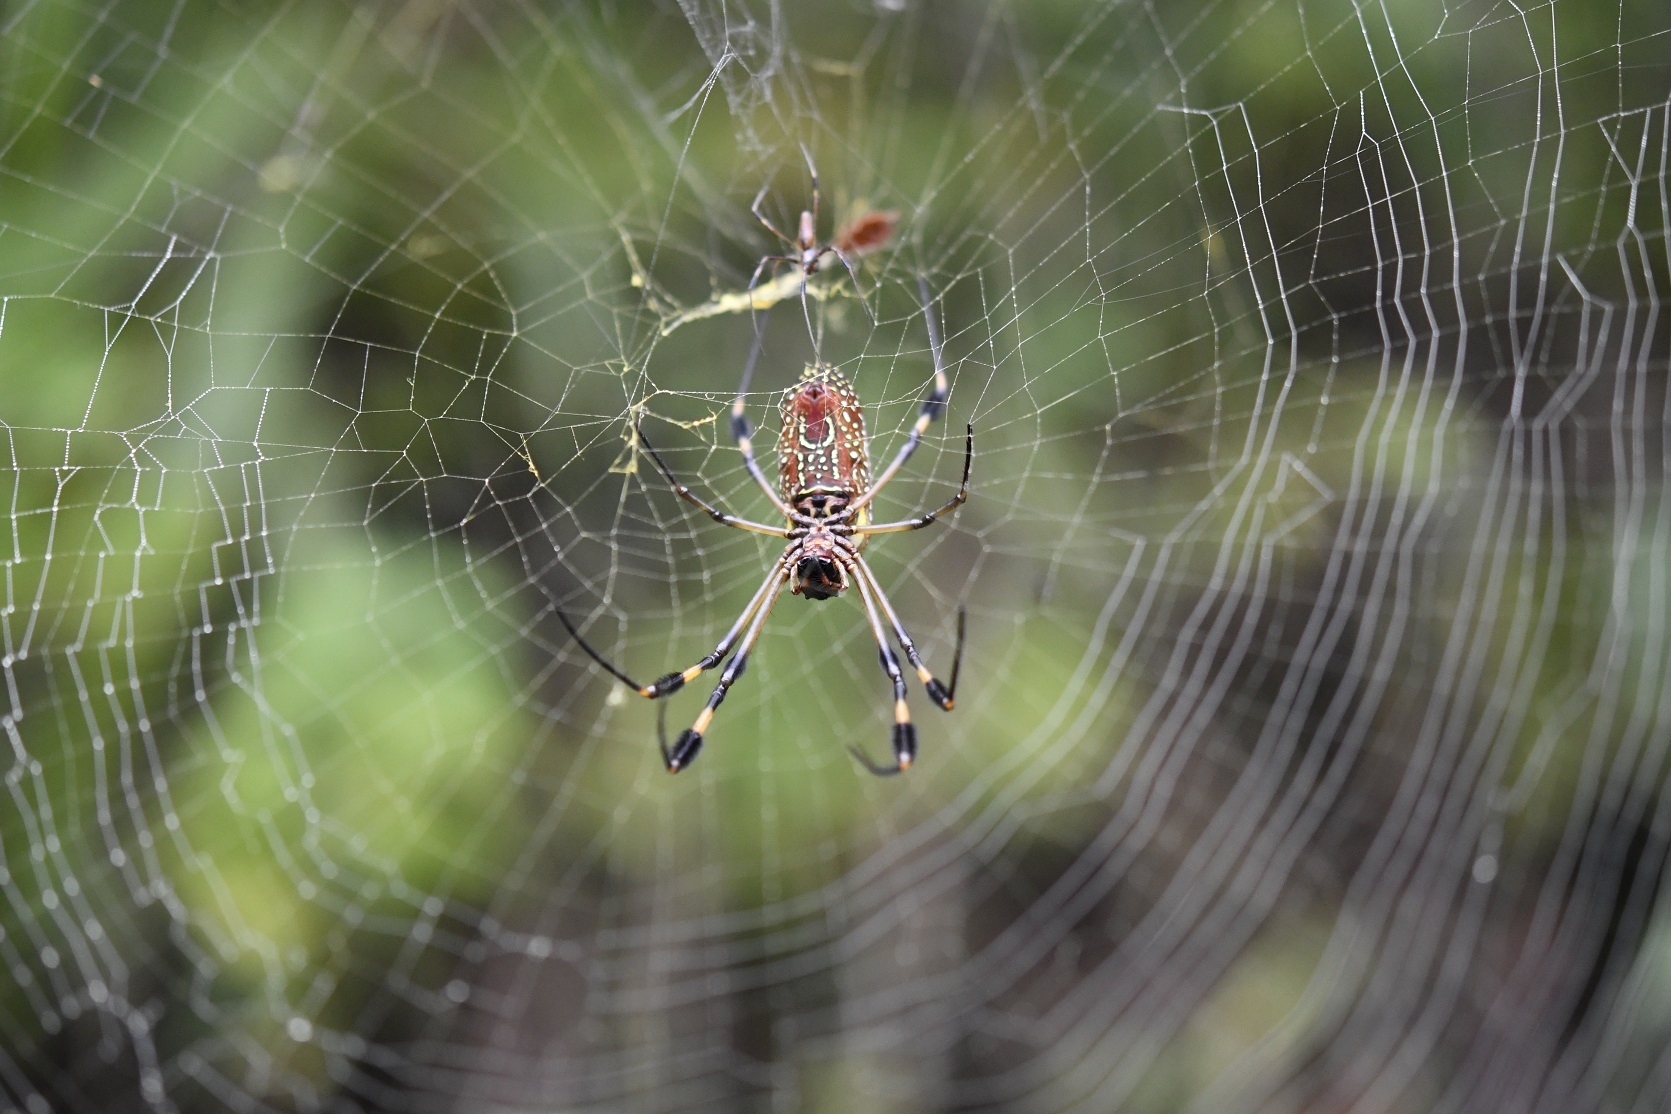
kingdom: Animalia
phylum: Arthropoda
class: Arachnida
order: Araneae
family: Araneidae
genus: Trichonephila
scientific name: Trichonephila clavipes
